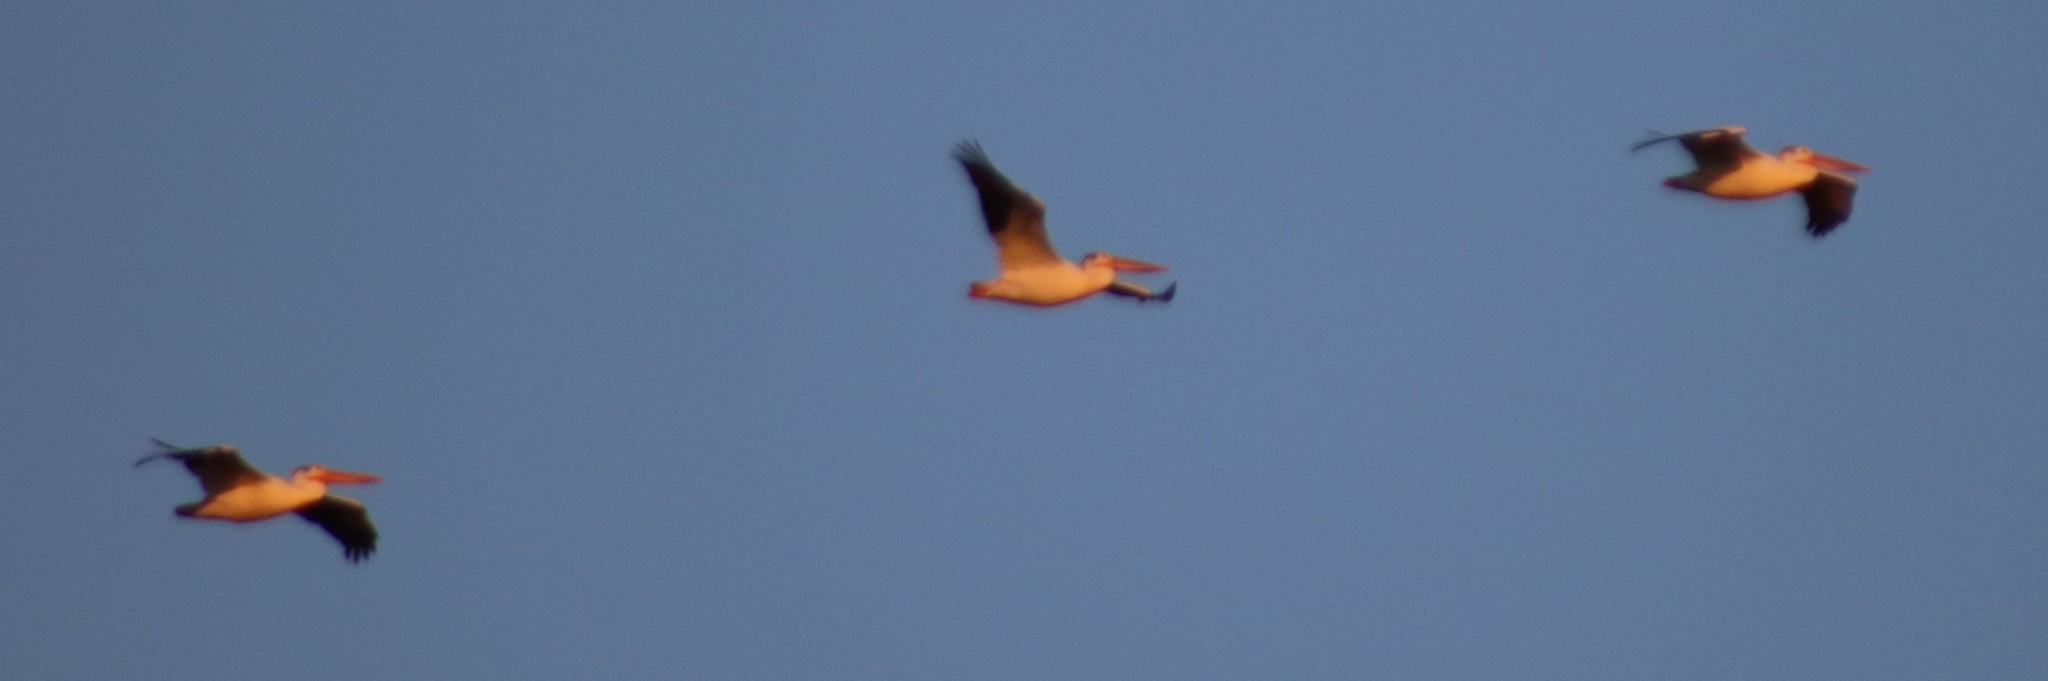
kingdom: Animalia
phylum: Chordata
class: Aves
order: Pelecaniformes
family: Pelecanidae
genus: Pelecanus
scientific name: Pelecanus erythrorhynchos
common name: American white pelican
